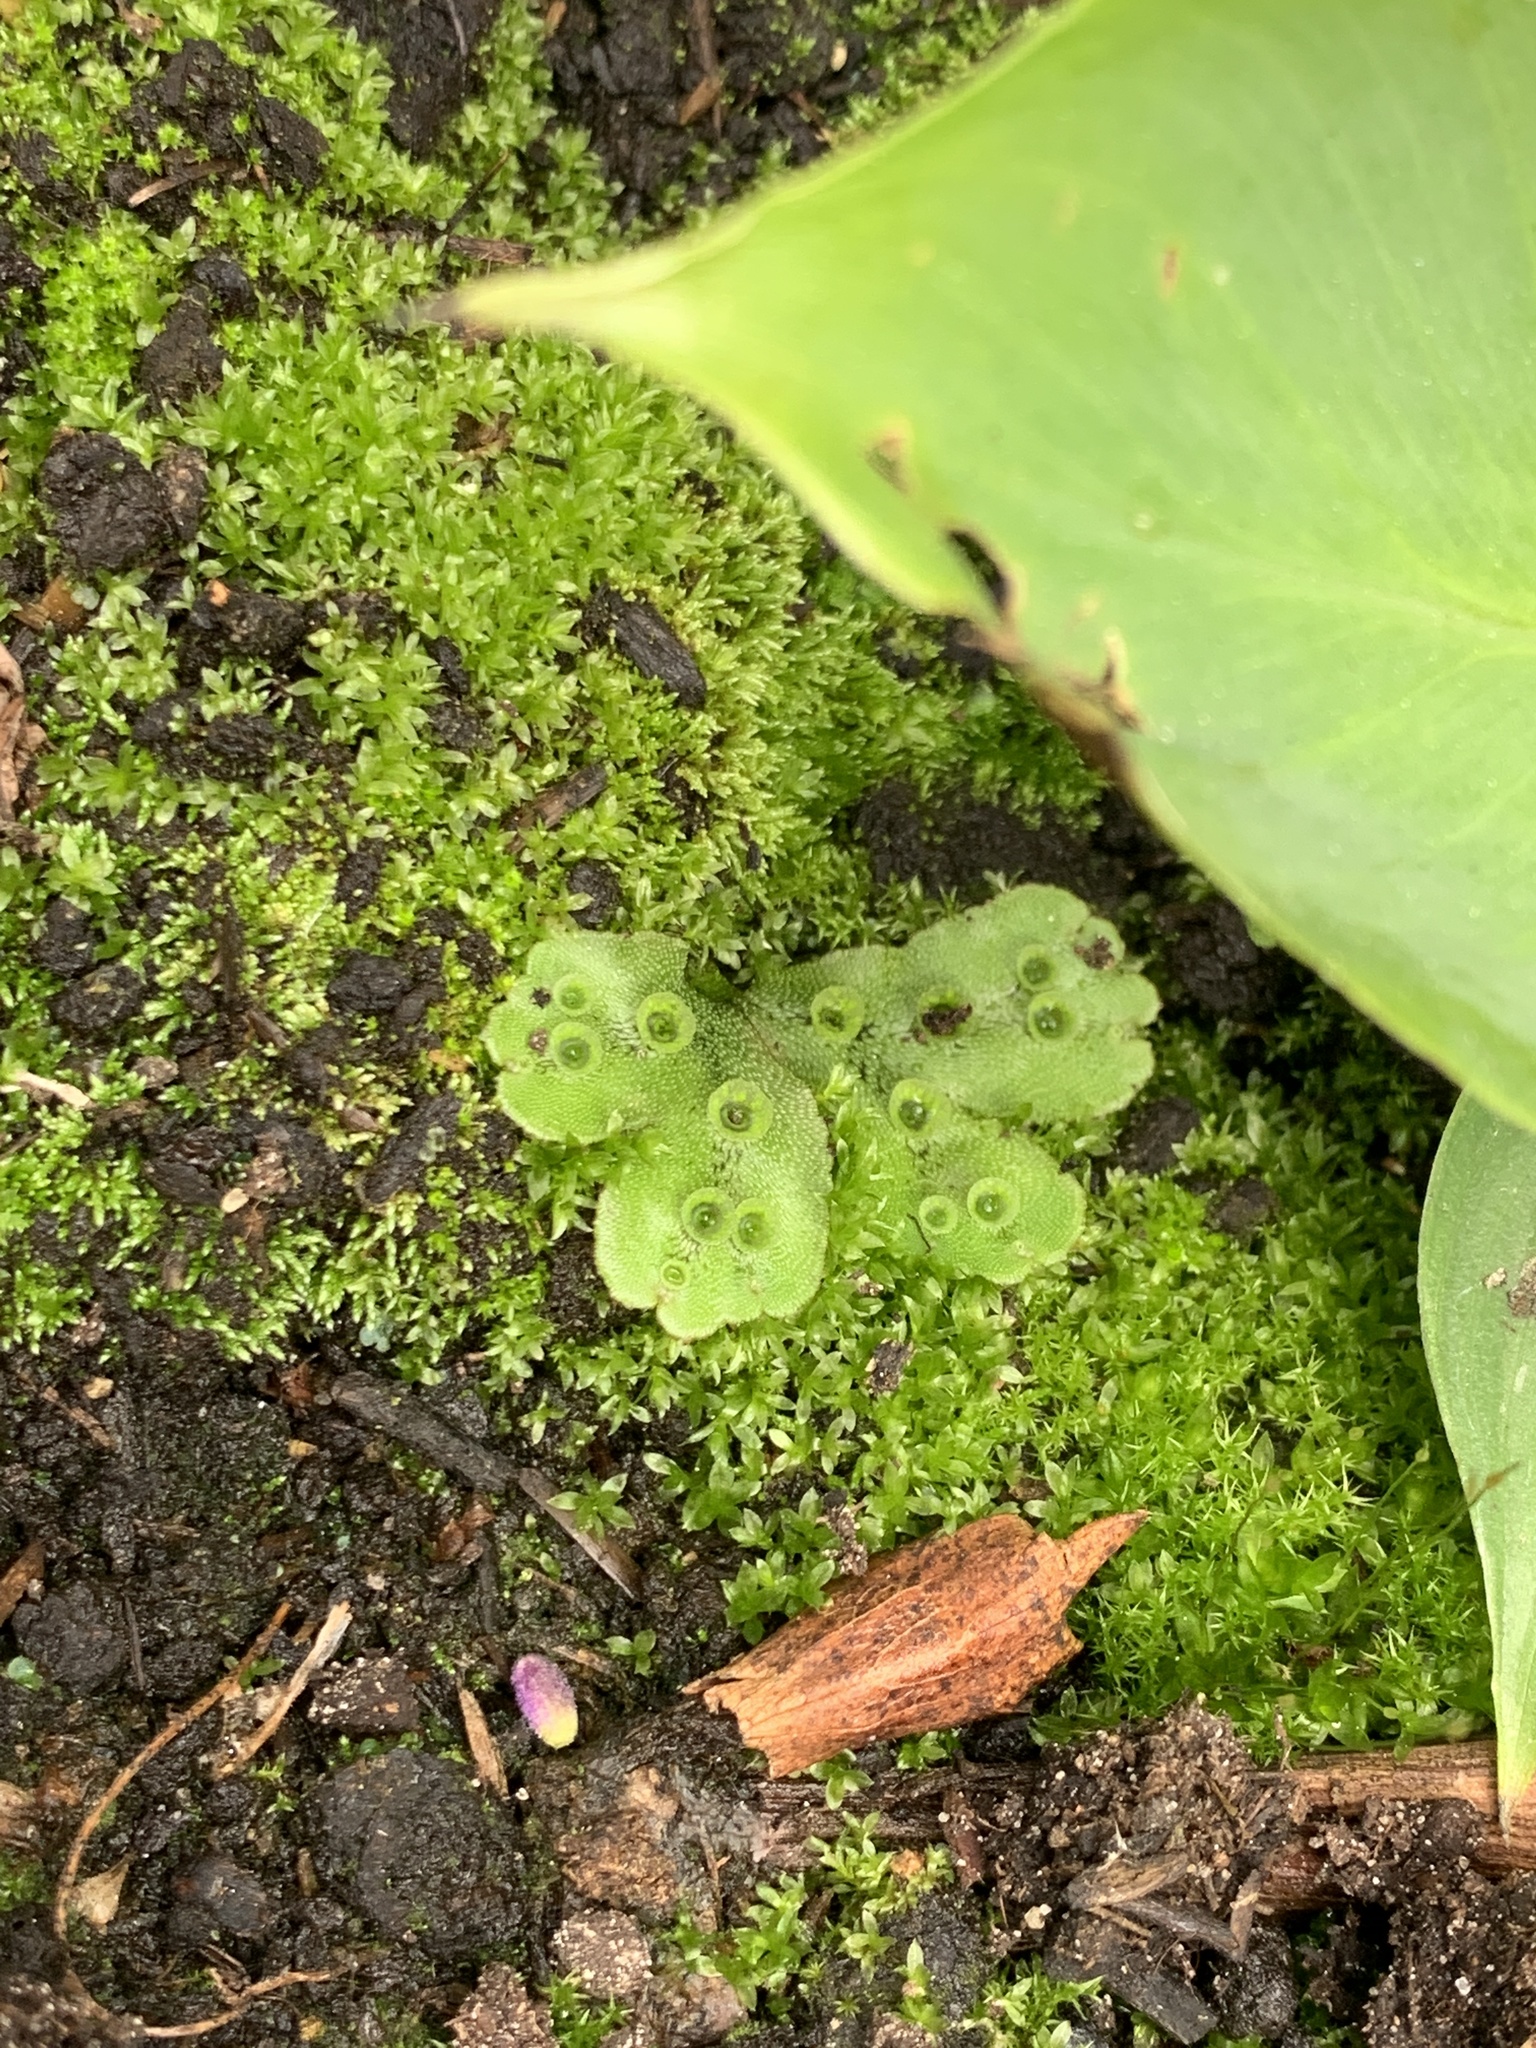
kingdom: Plantae
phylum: Marchantiophyta
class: Marchantiopsida
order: Marchantiales
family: Marchantiaceae
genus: Marchantia
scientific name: Marchantia polymorpha
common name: Common liverwort
